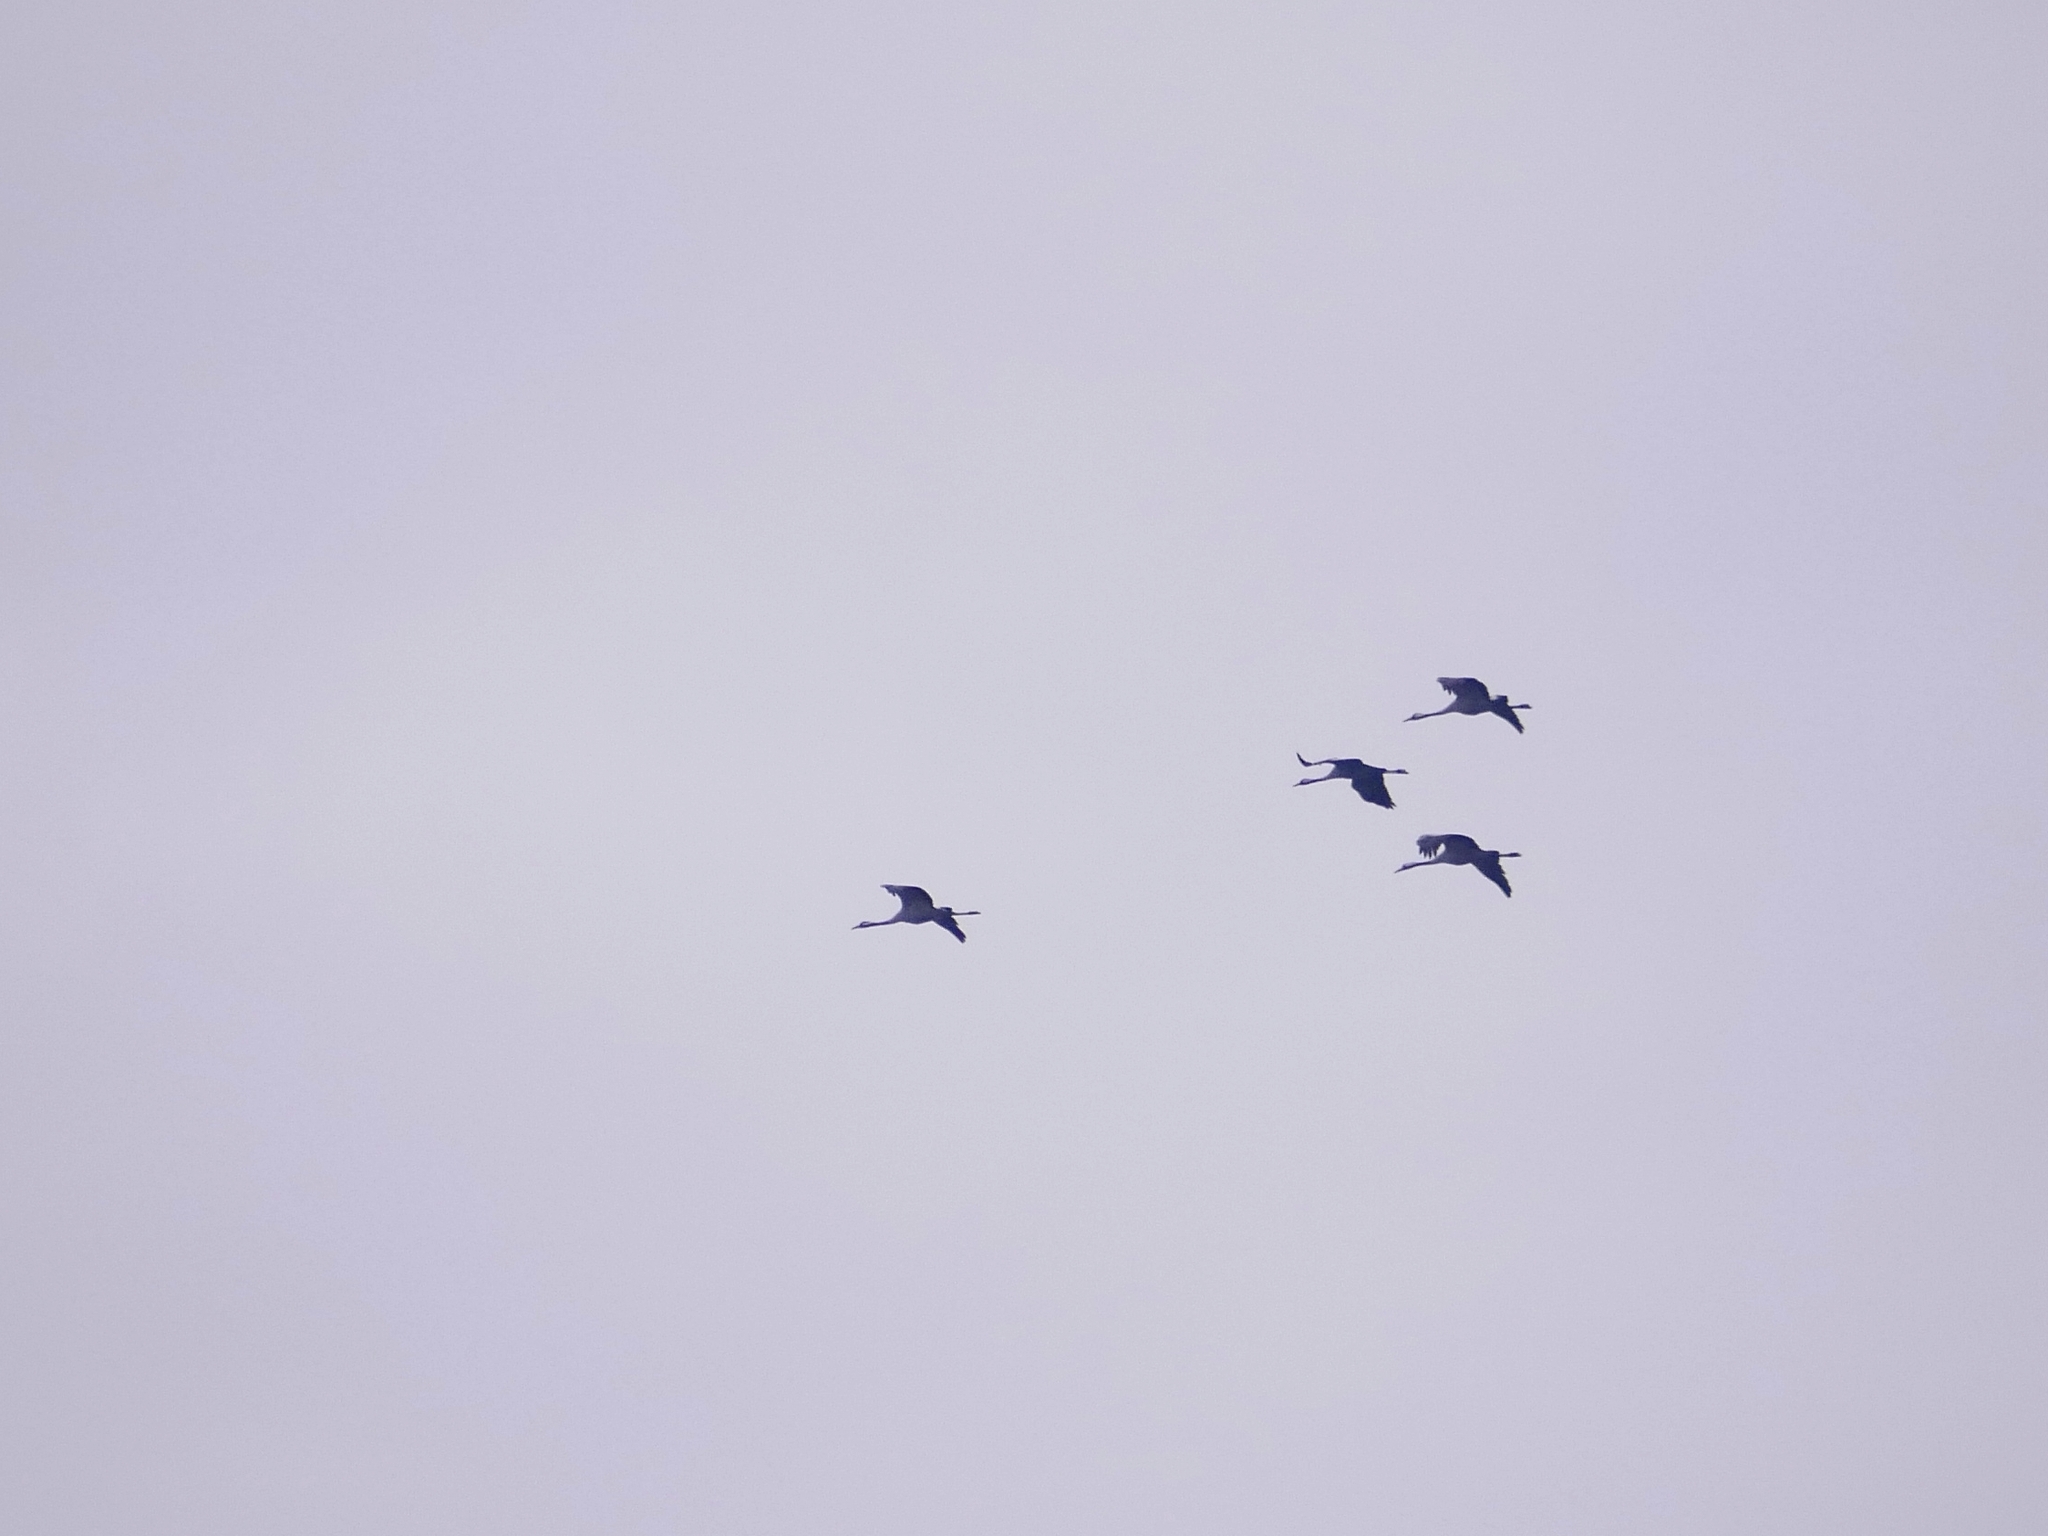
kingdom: Animalia
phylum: Chordata
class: Aves
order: Gruiformes
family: Gruidae
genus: Grus
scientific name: Grus grus
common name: Common crane
